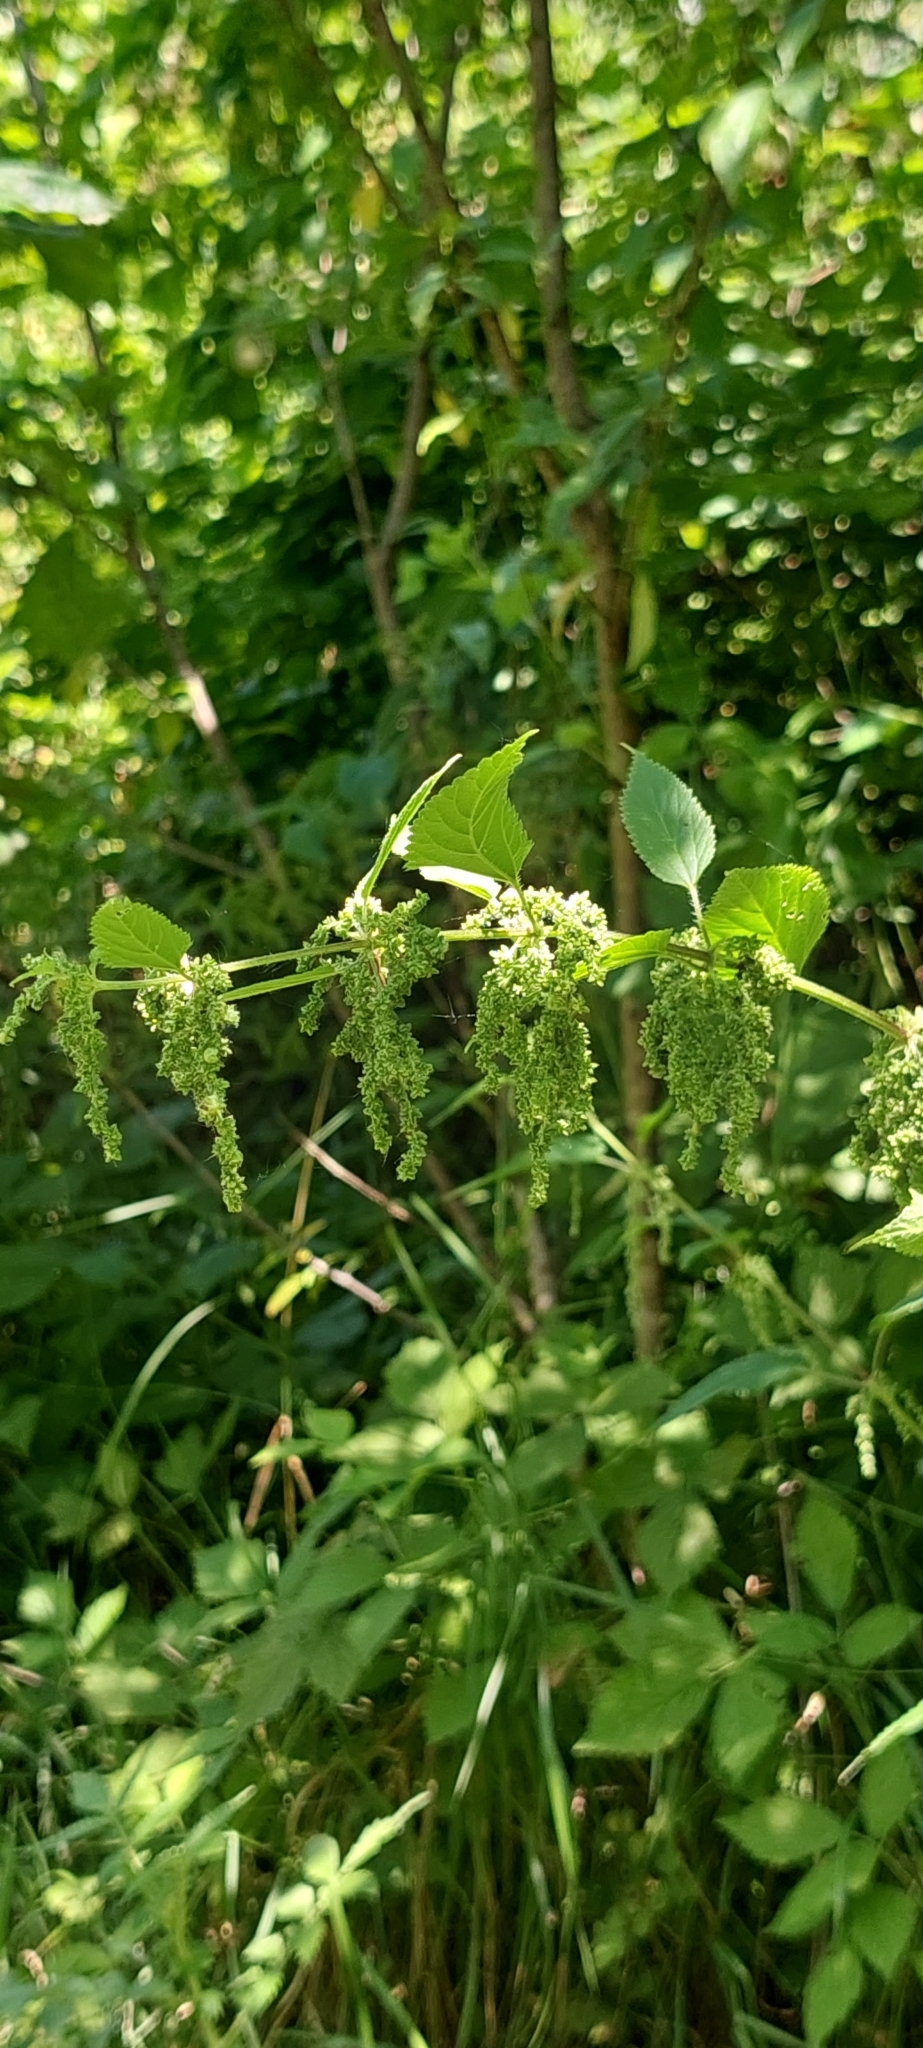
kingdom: Plantae
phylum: Tracheophyta
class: Magnoliopsida
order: Rosales
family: Urticaceae
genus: Urtica
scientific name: Urtica dioica
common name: Common nettle
